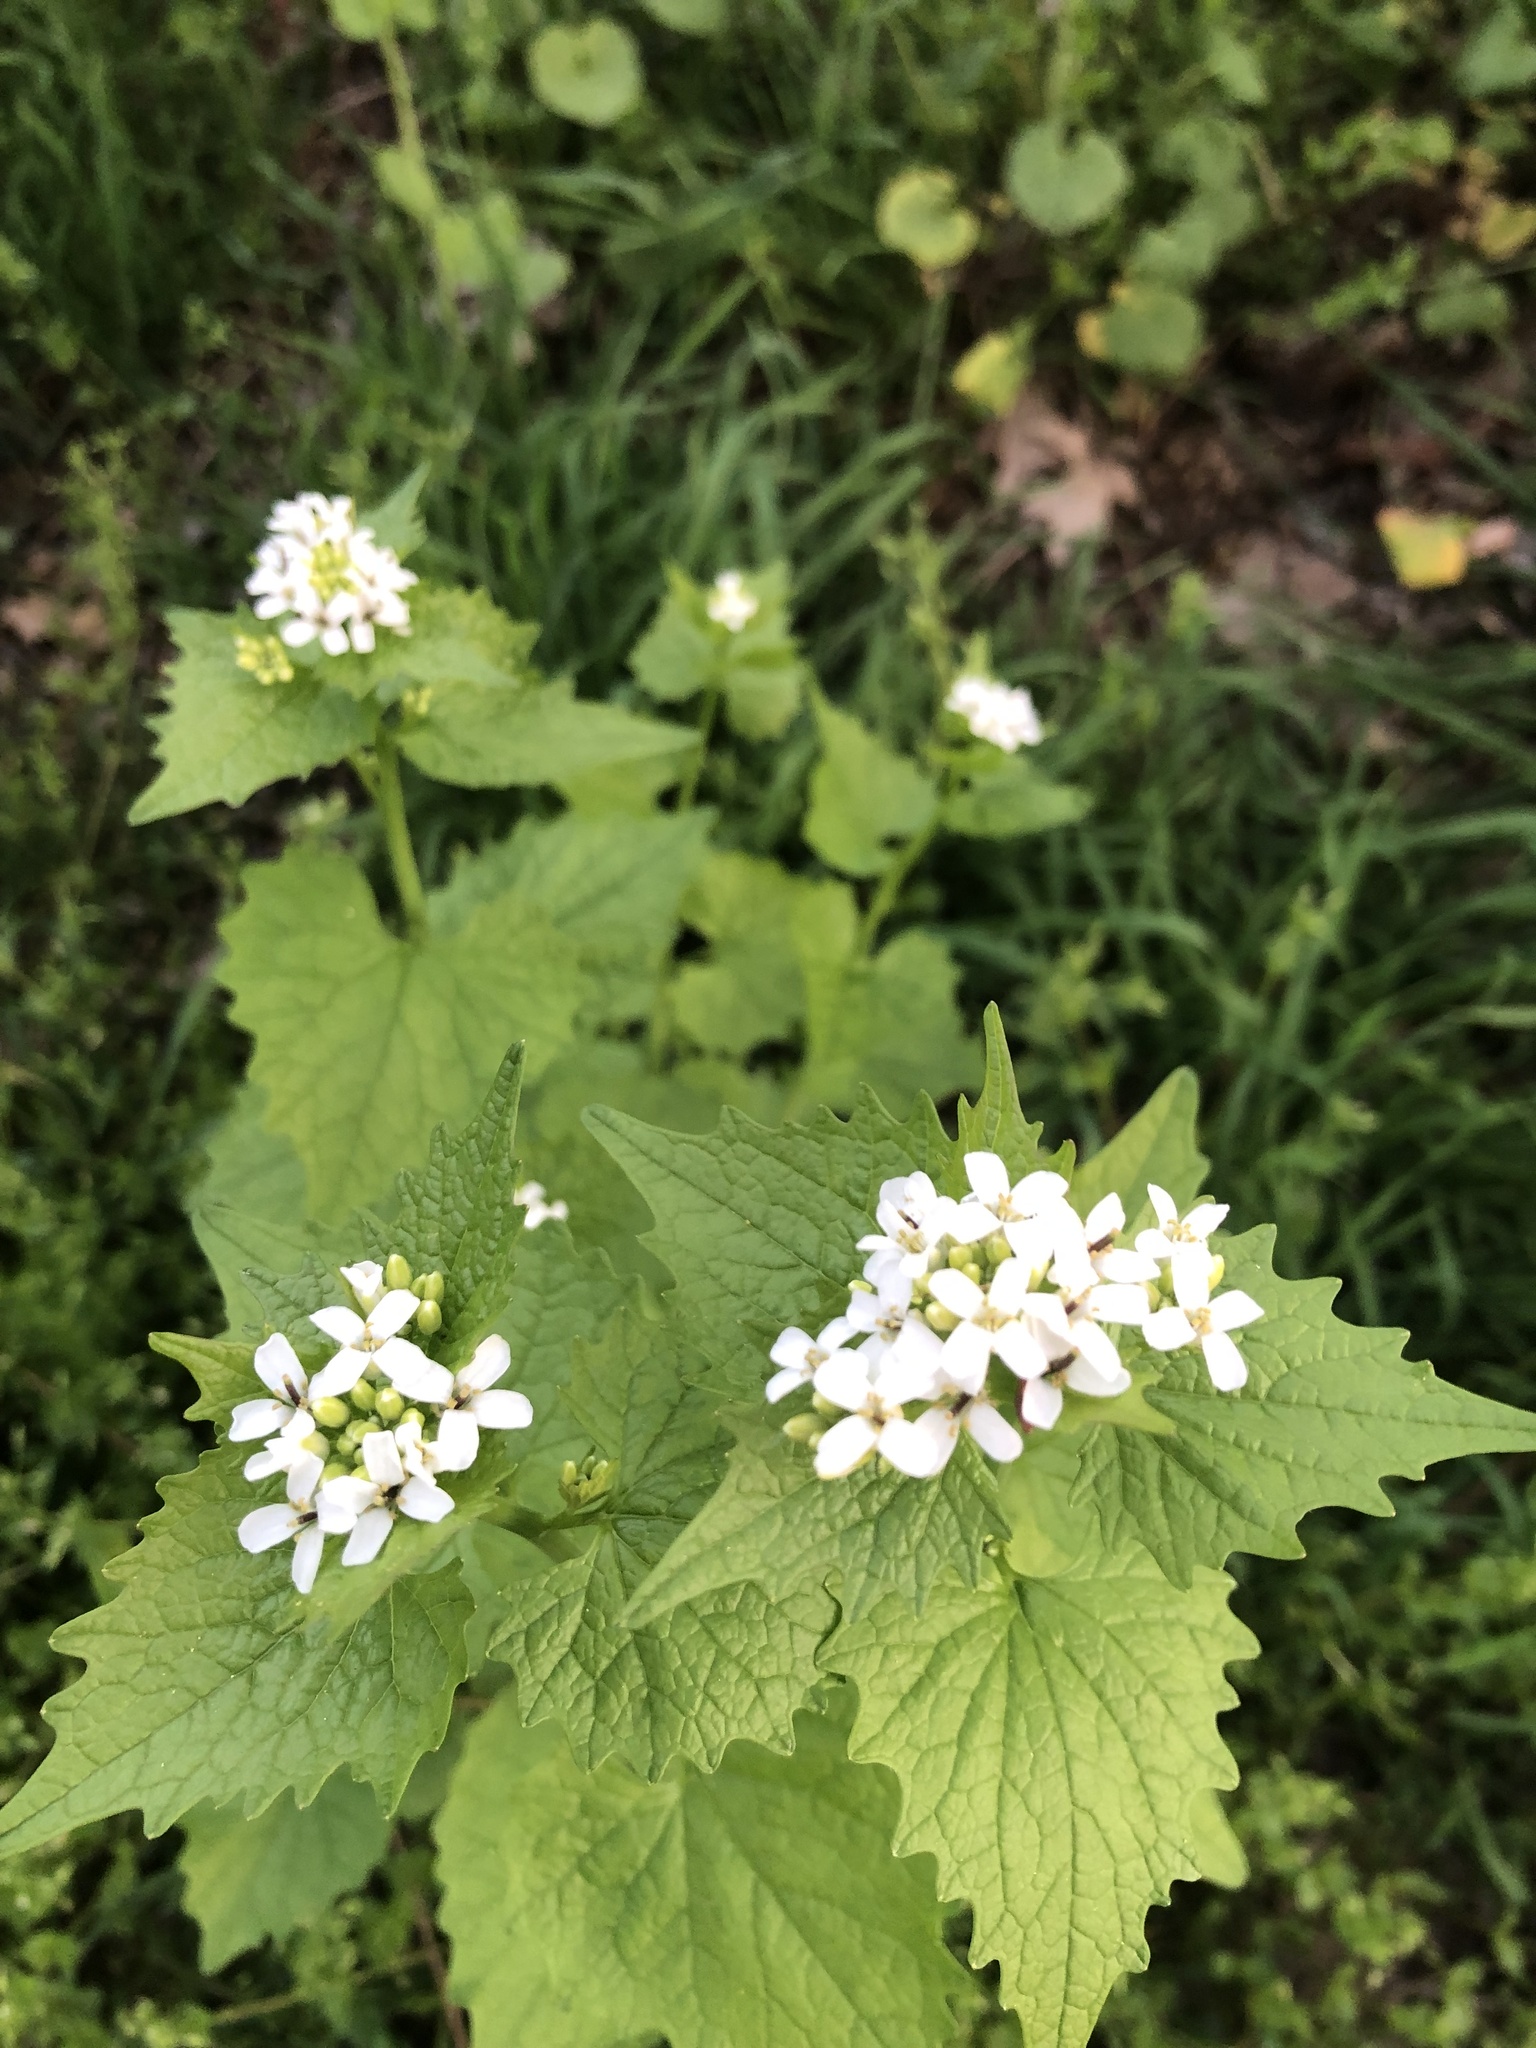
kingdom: Plantae
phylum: Tracheophyta
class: Magnoliopsida
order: Brassicales
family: Brassicaceae
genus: Alliaria
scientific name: Alliaria petiolata
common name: Garlic mustard
